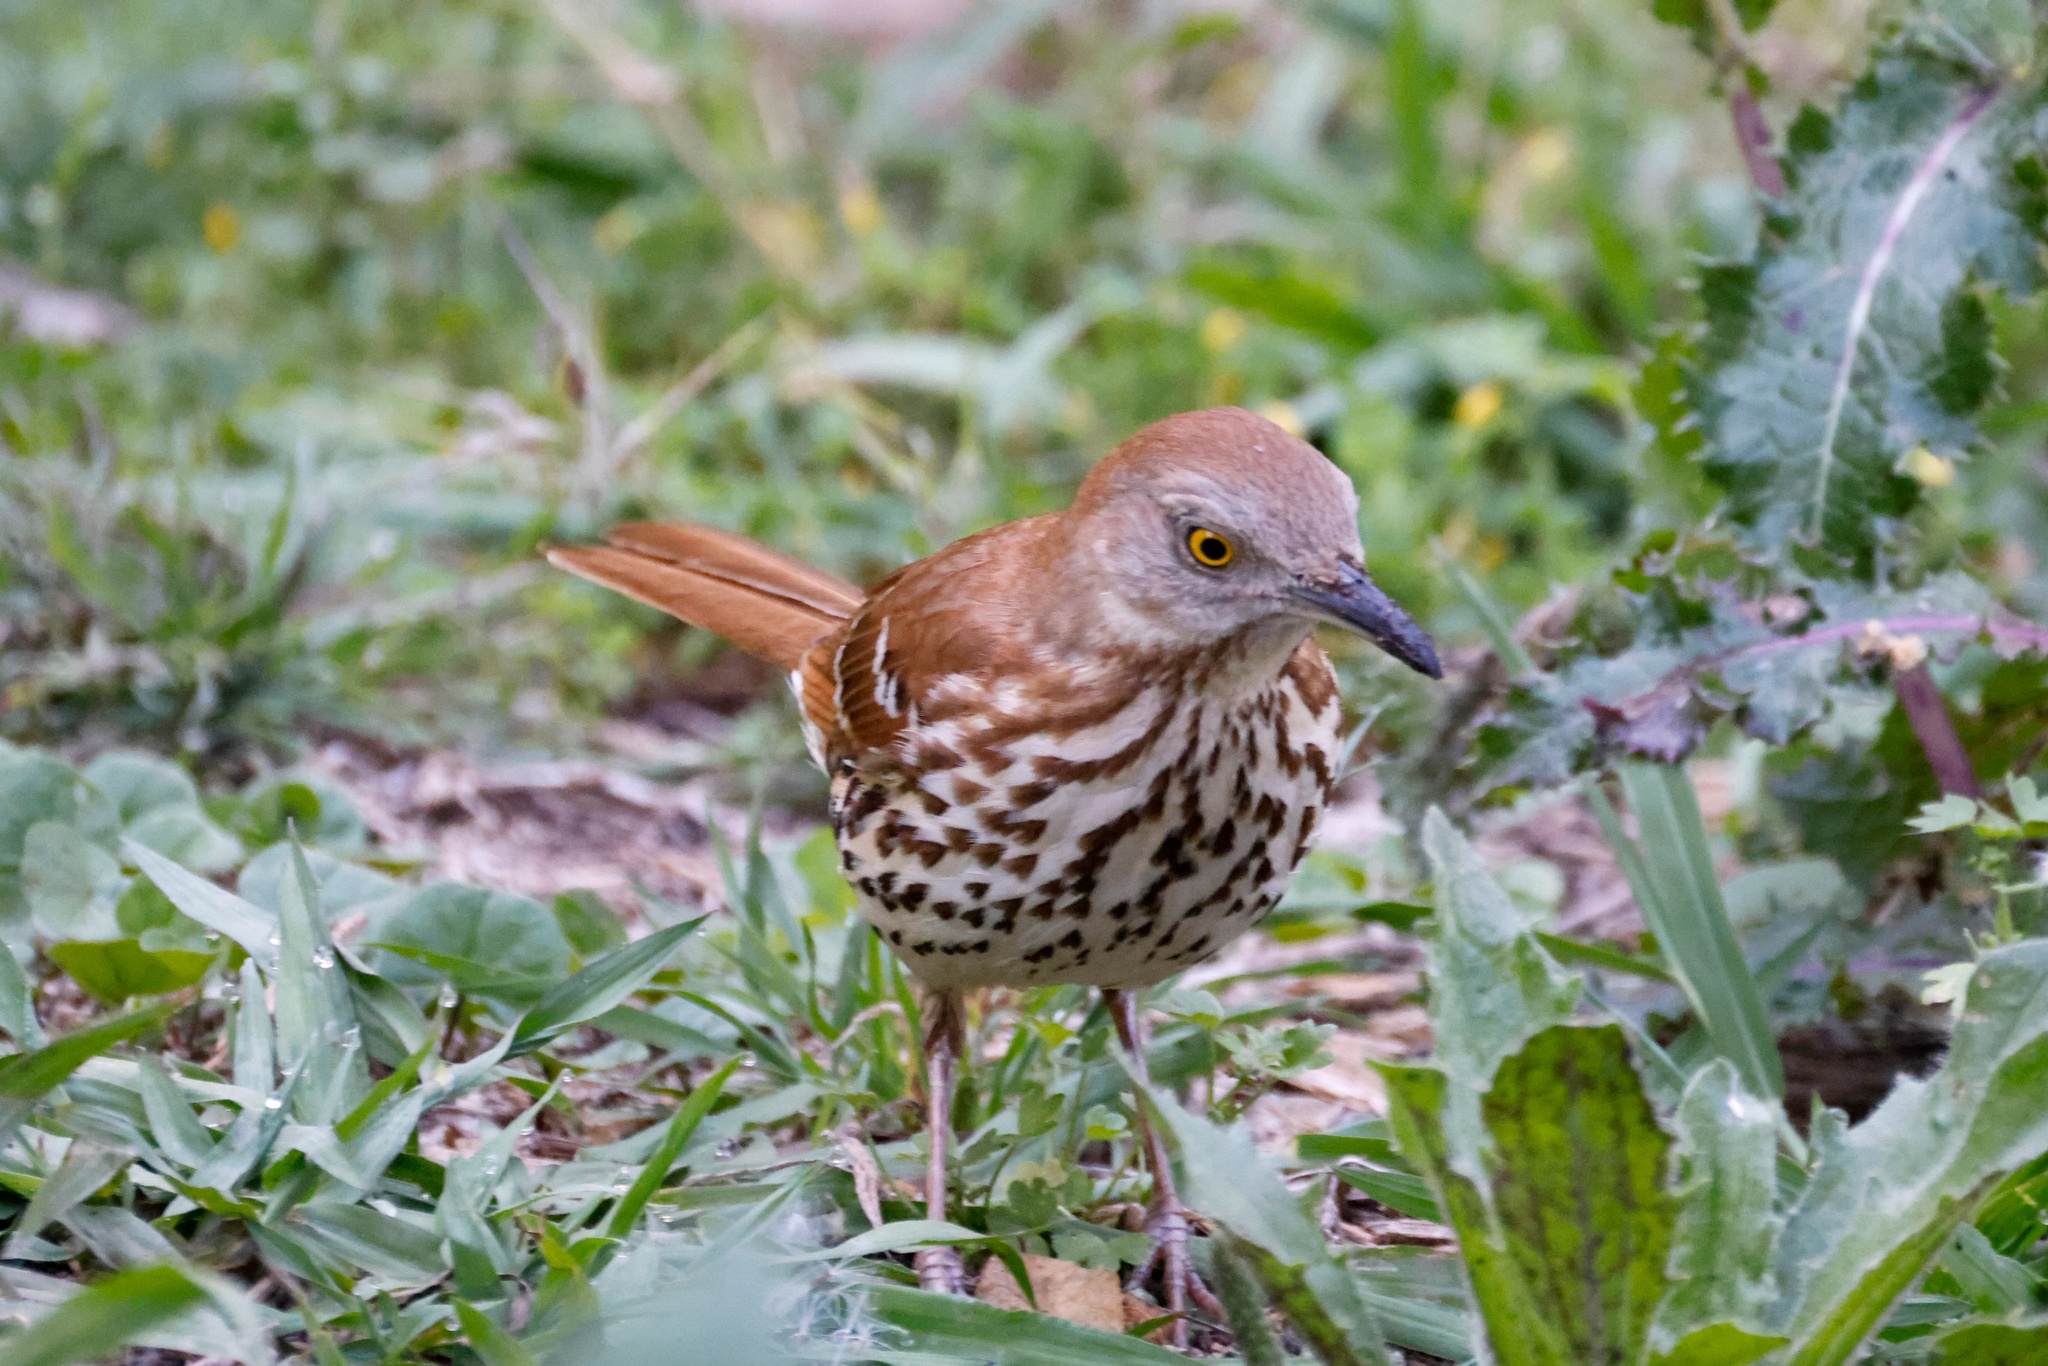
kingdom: Animalia
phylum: Chordata
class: Aves
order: Passeriformes
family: Mimidae
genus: Toxostoma
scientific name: Toxostoma rufum
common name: Brown thrasher
